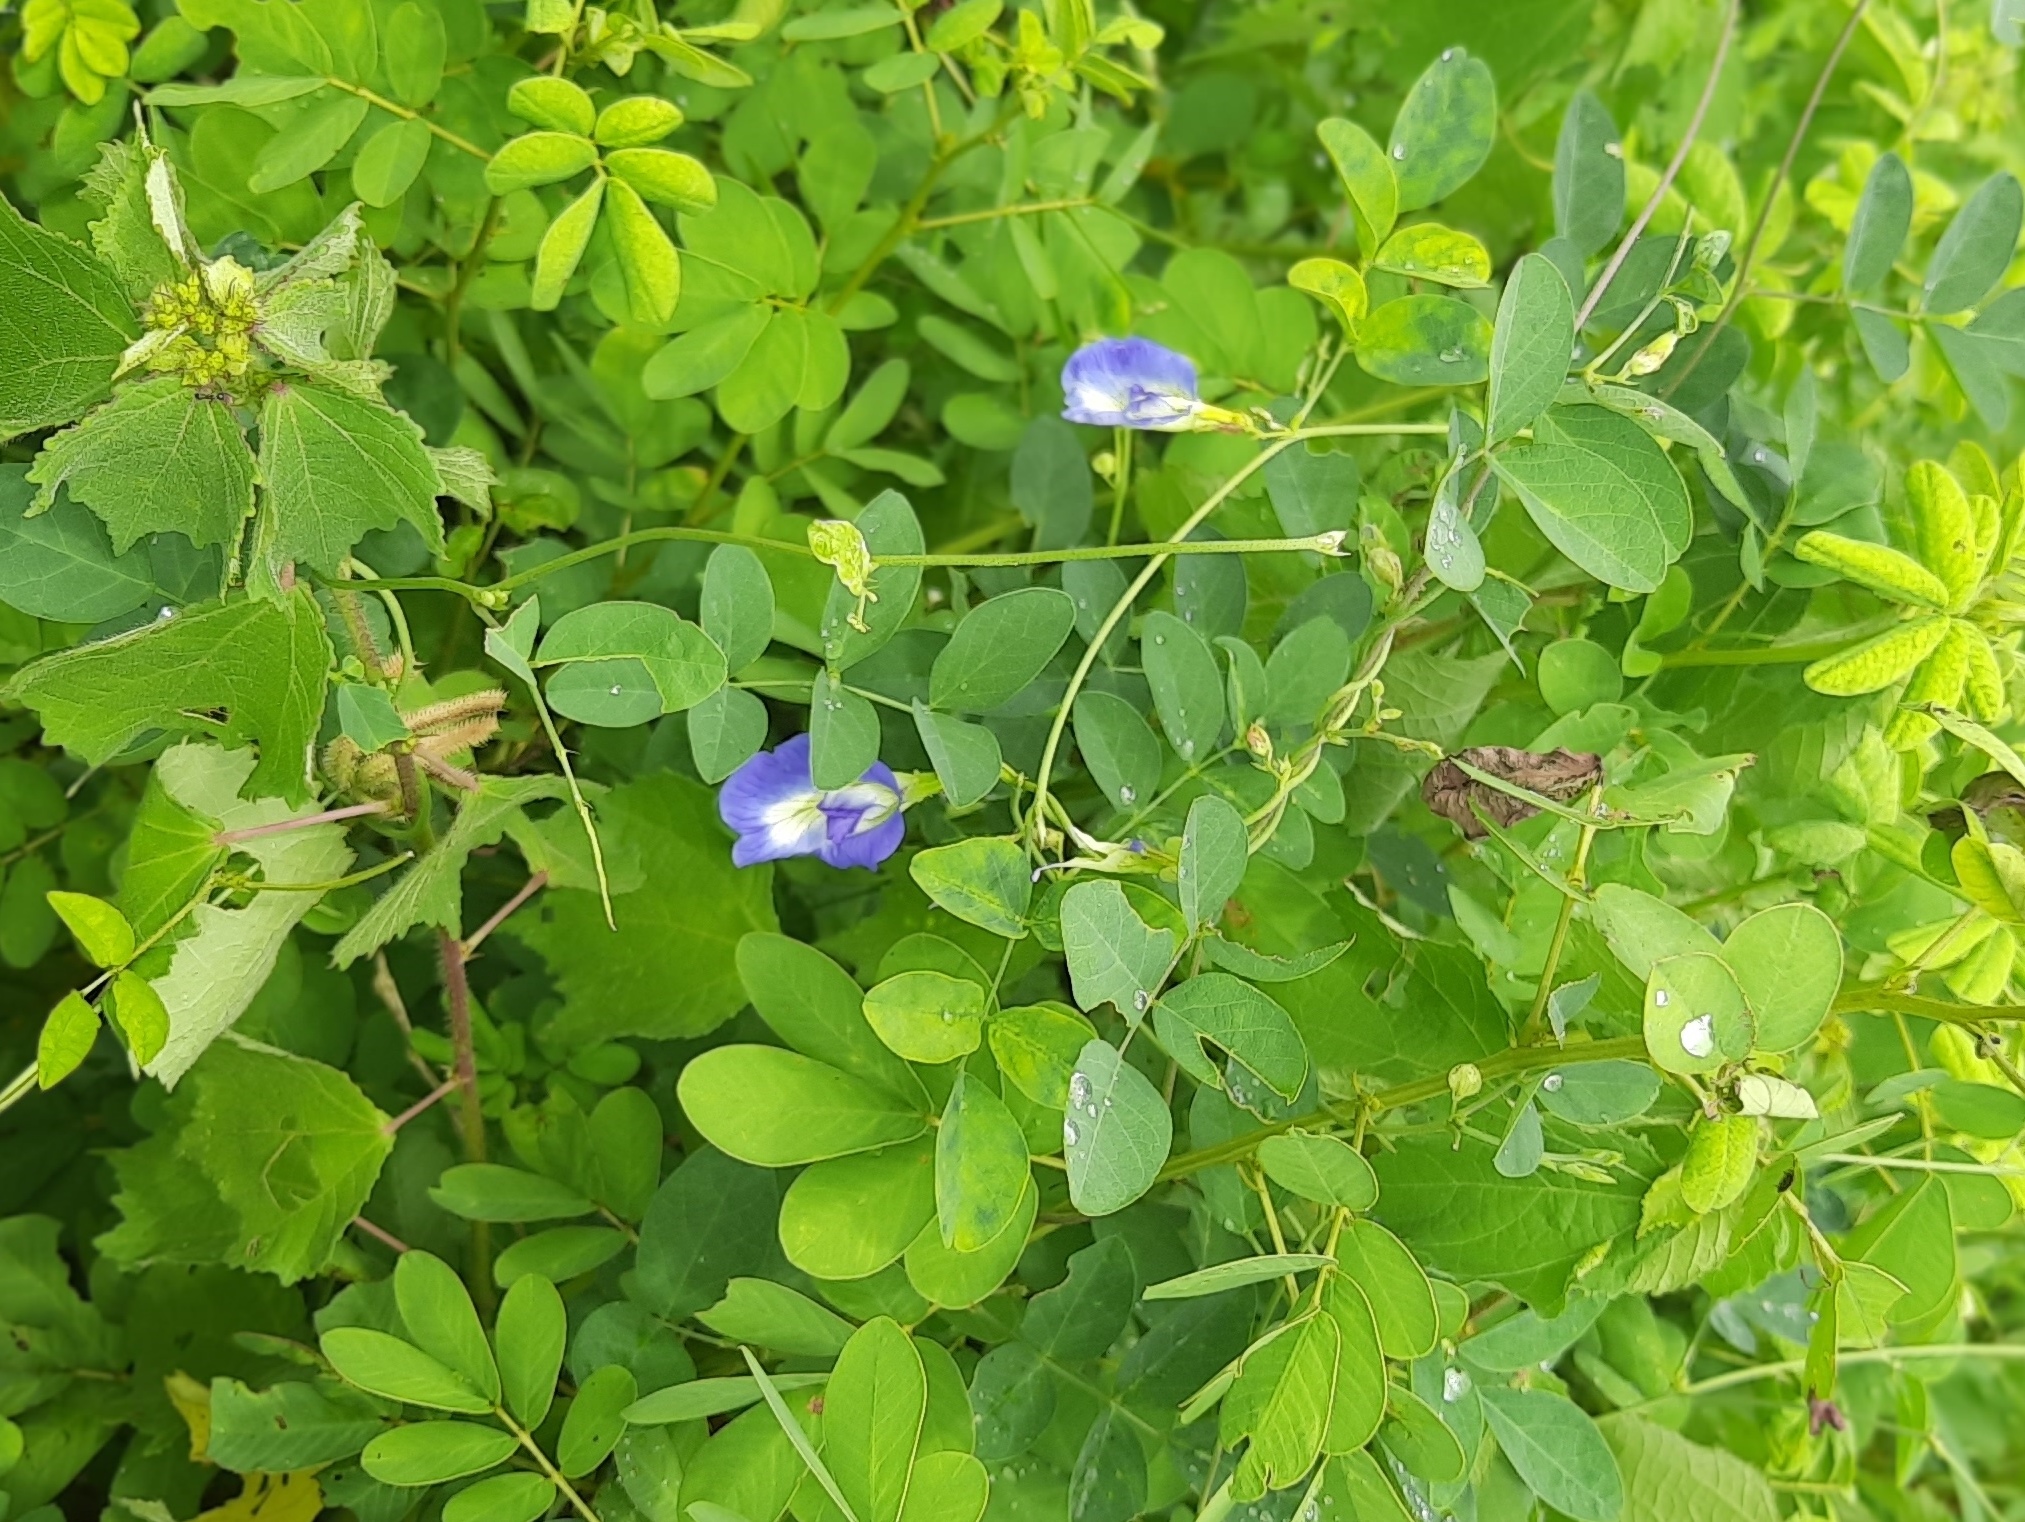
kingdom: Plantae
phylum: Tracheophyta
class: Magnoliopsida
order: Fabales
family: Fabaceae
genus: Clitoria
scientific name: Clitoria ternatea
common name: Asian pigeonwings
